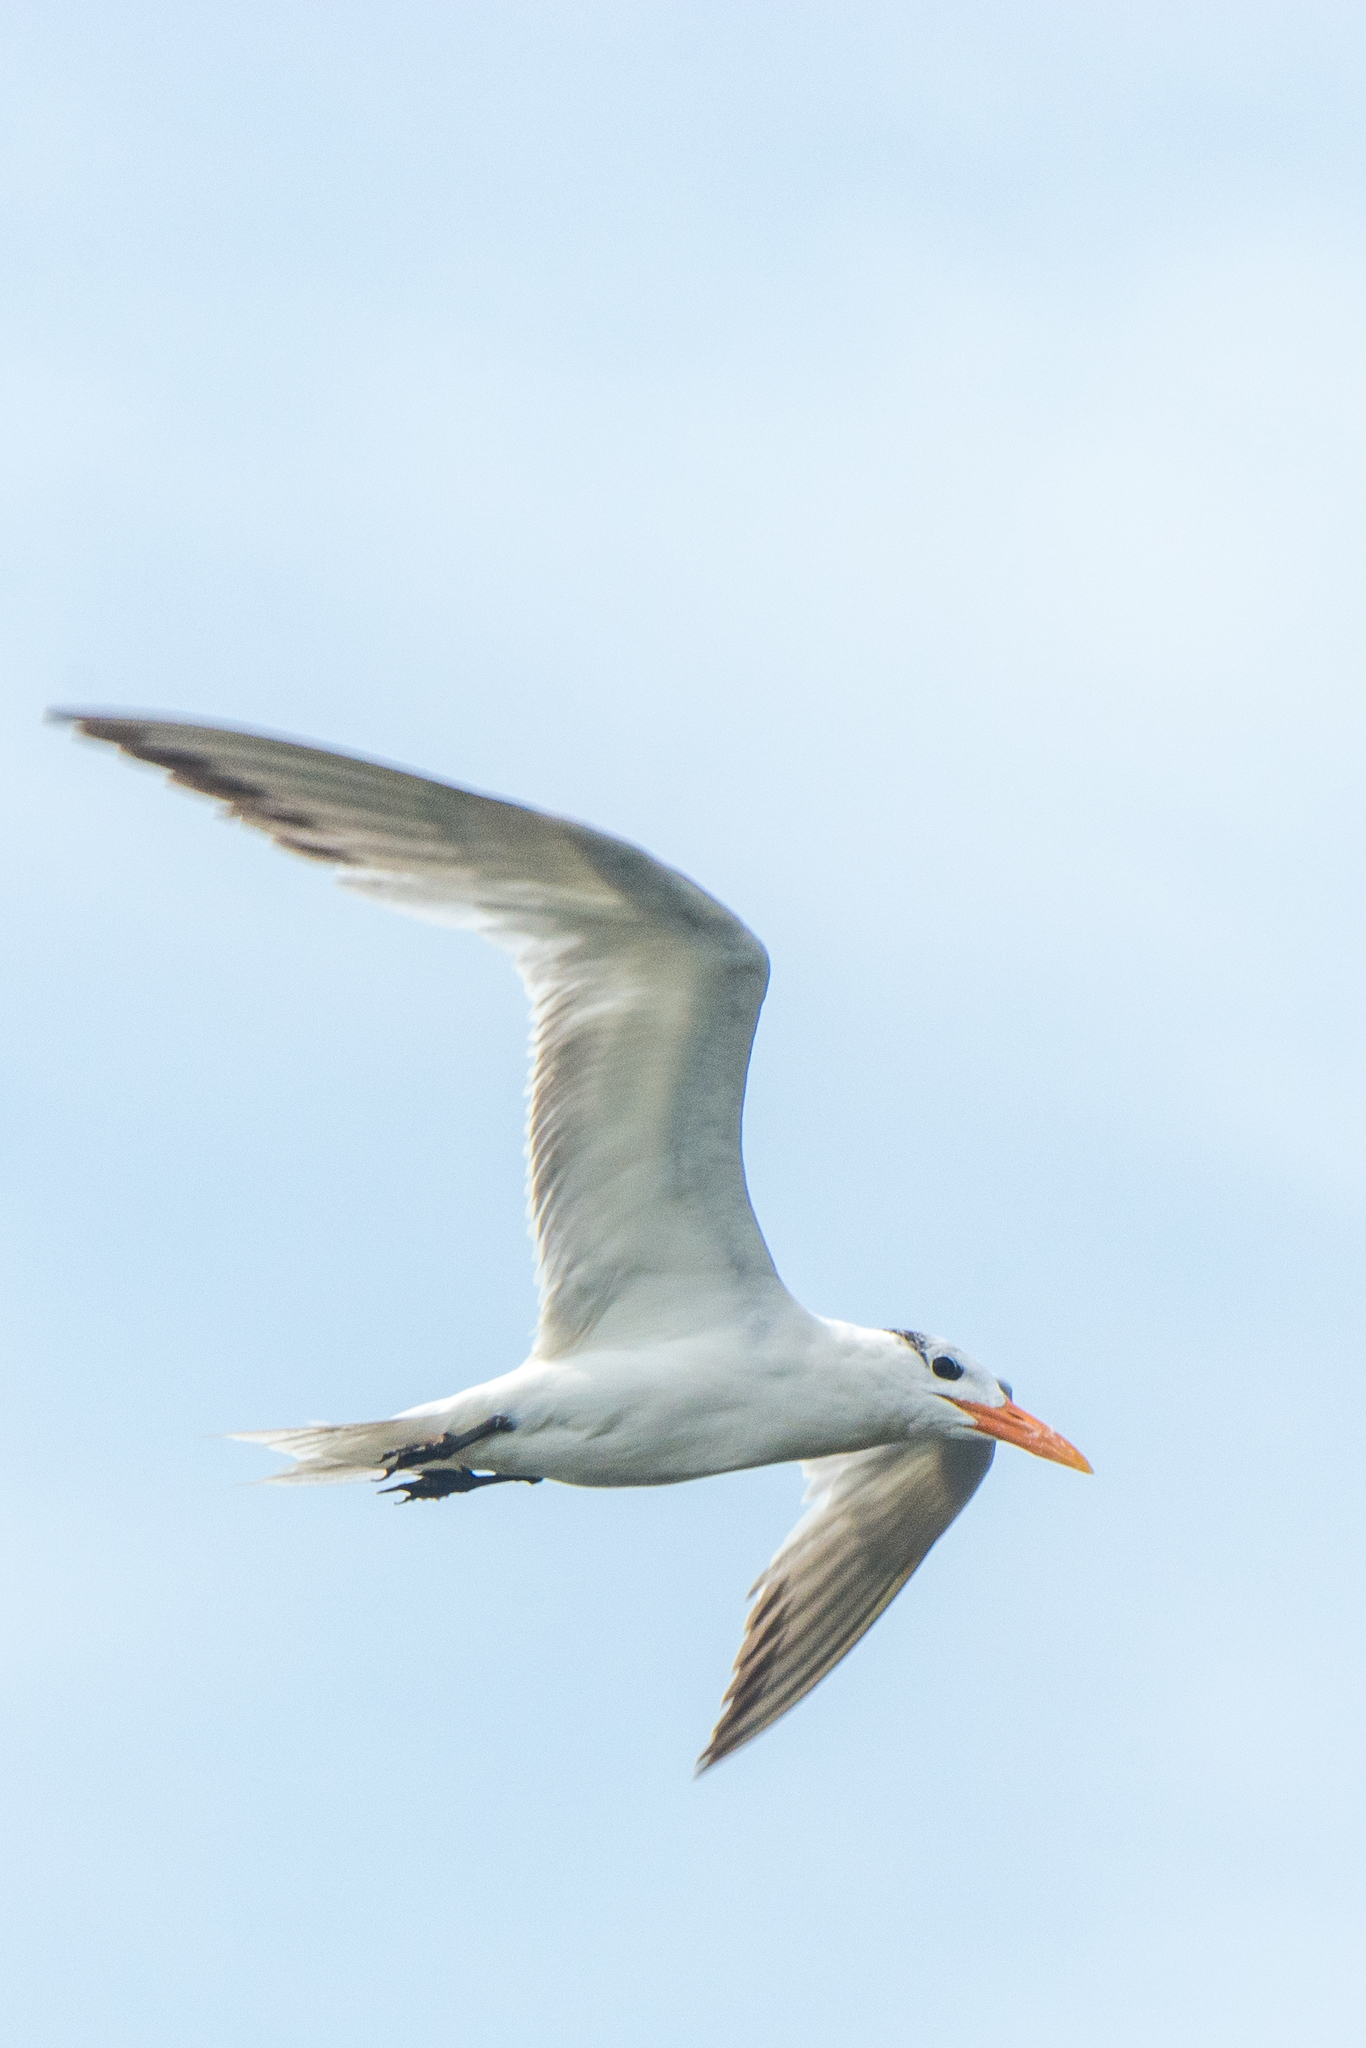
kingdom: Animalia
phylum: Chordata
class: Aves
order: Charadriiformes
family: Laridae
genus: Thalasseus
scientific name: Thalasseus maximus
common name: Royal tern
